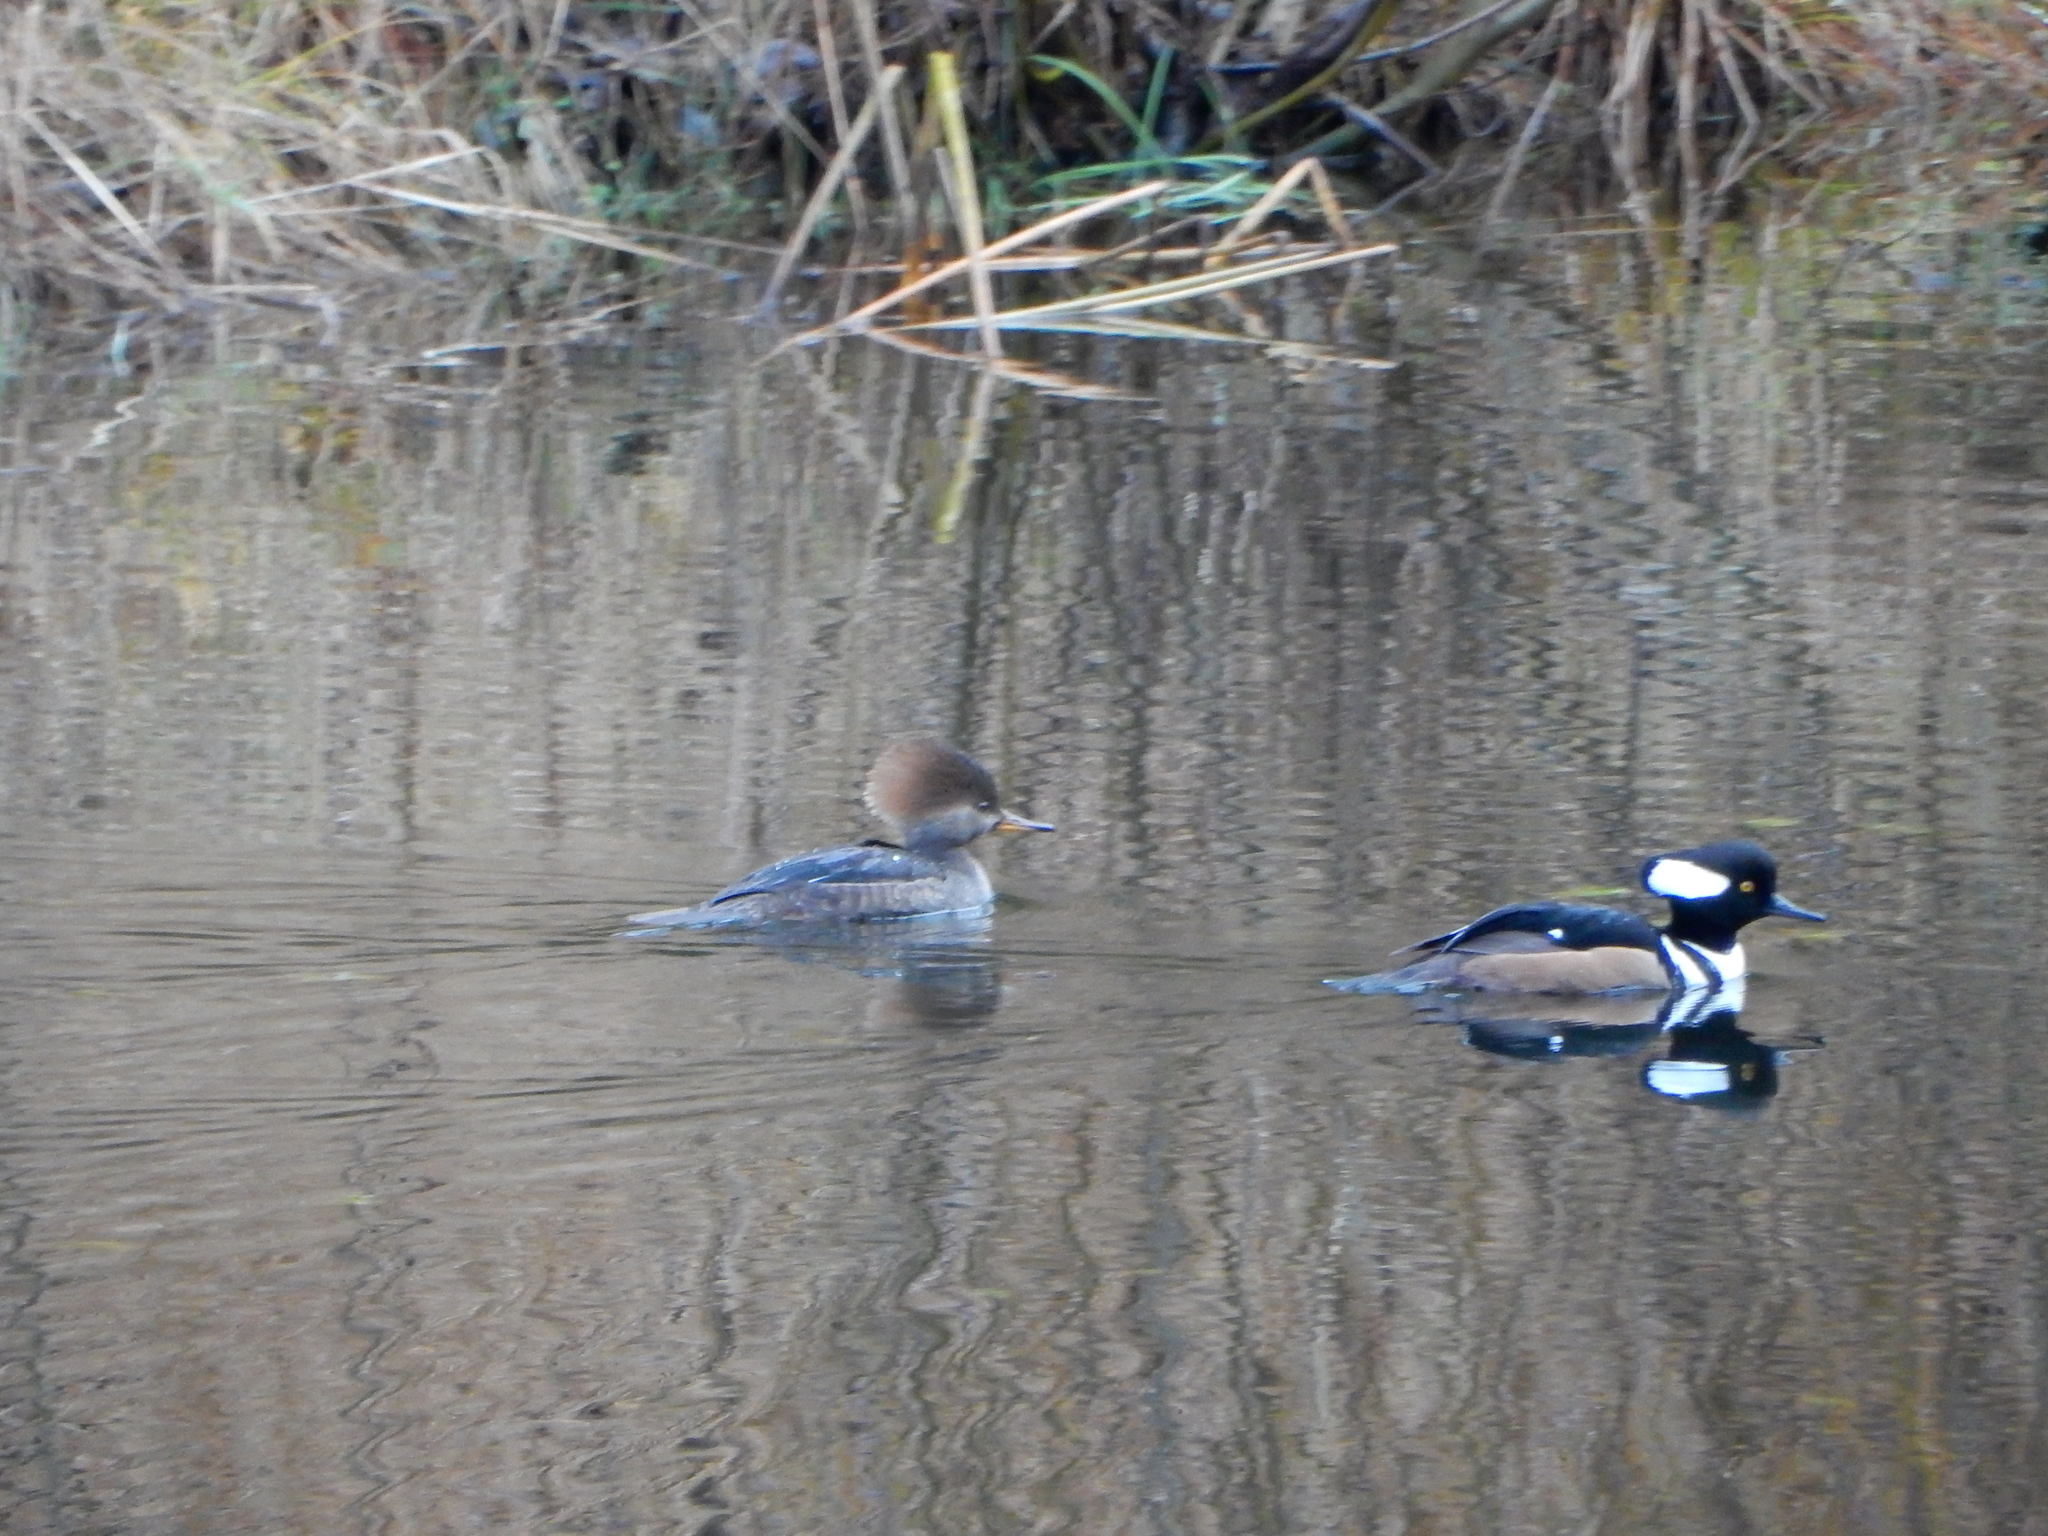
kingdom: Animalia
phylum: Chordata
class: Aves
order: Anseriformes
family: Anatidae
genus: Lophodytes
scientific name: Lophodytes cucullatus
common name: Hooded merganser
